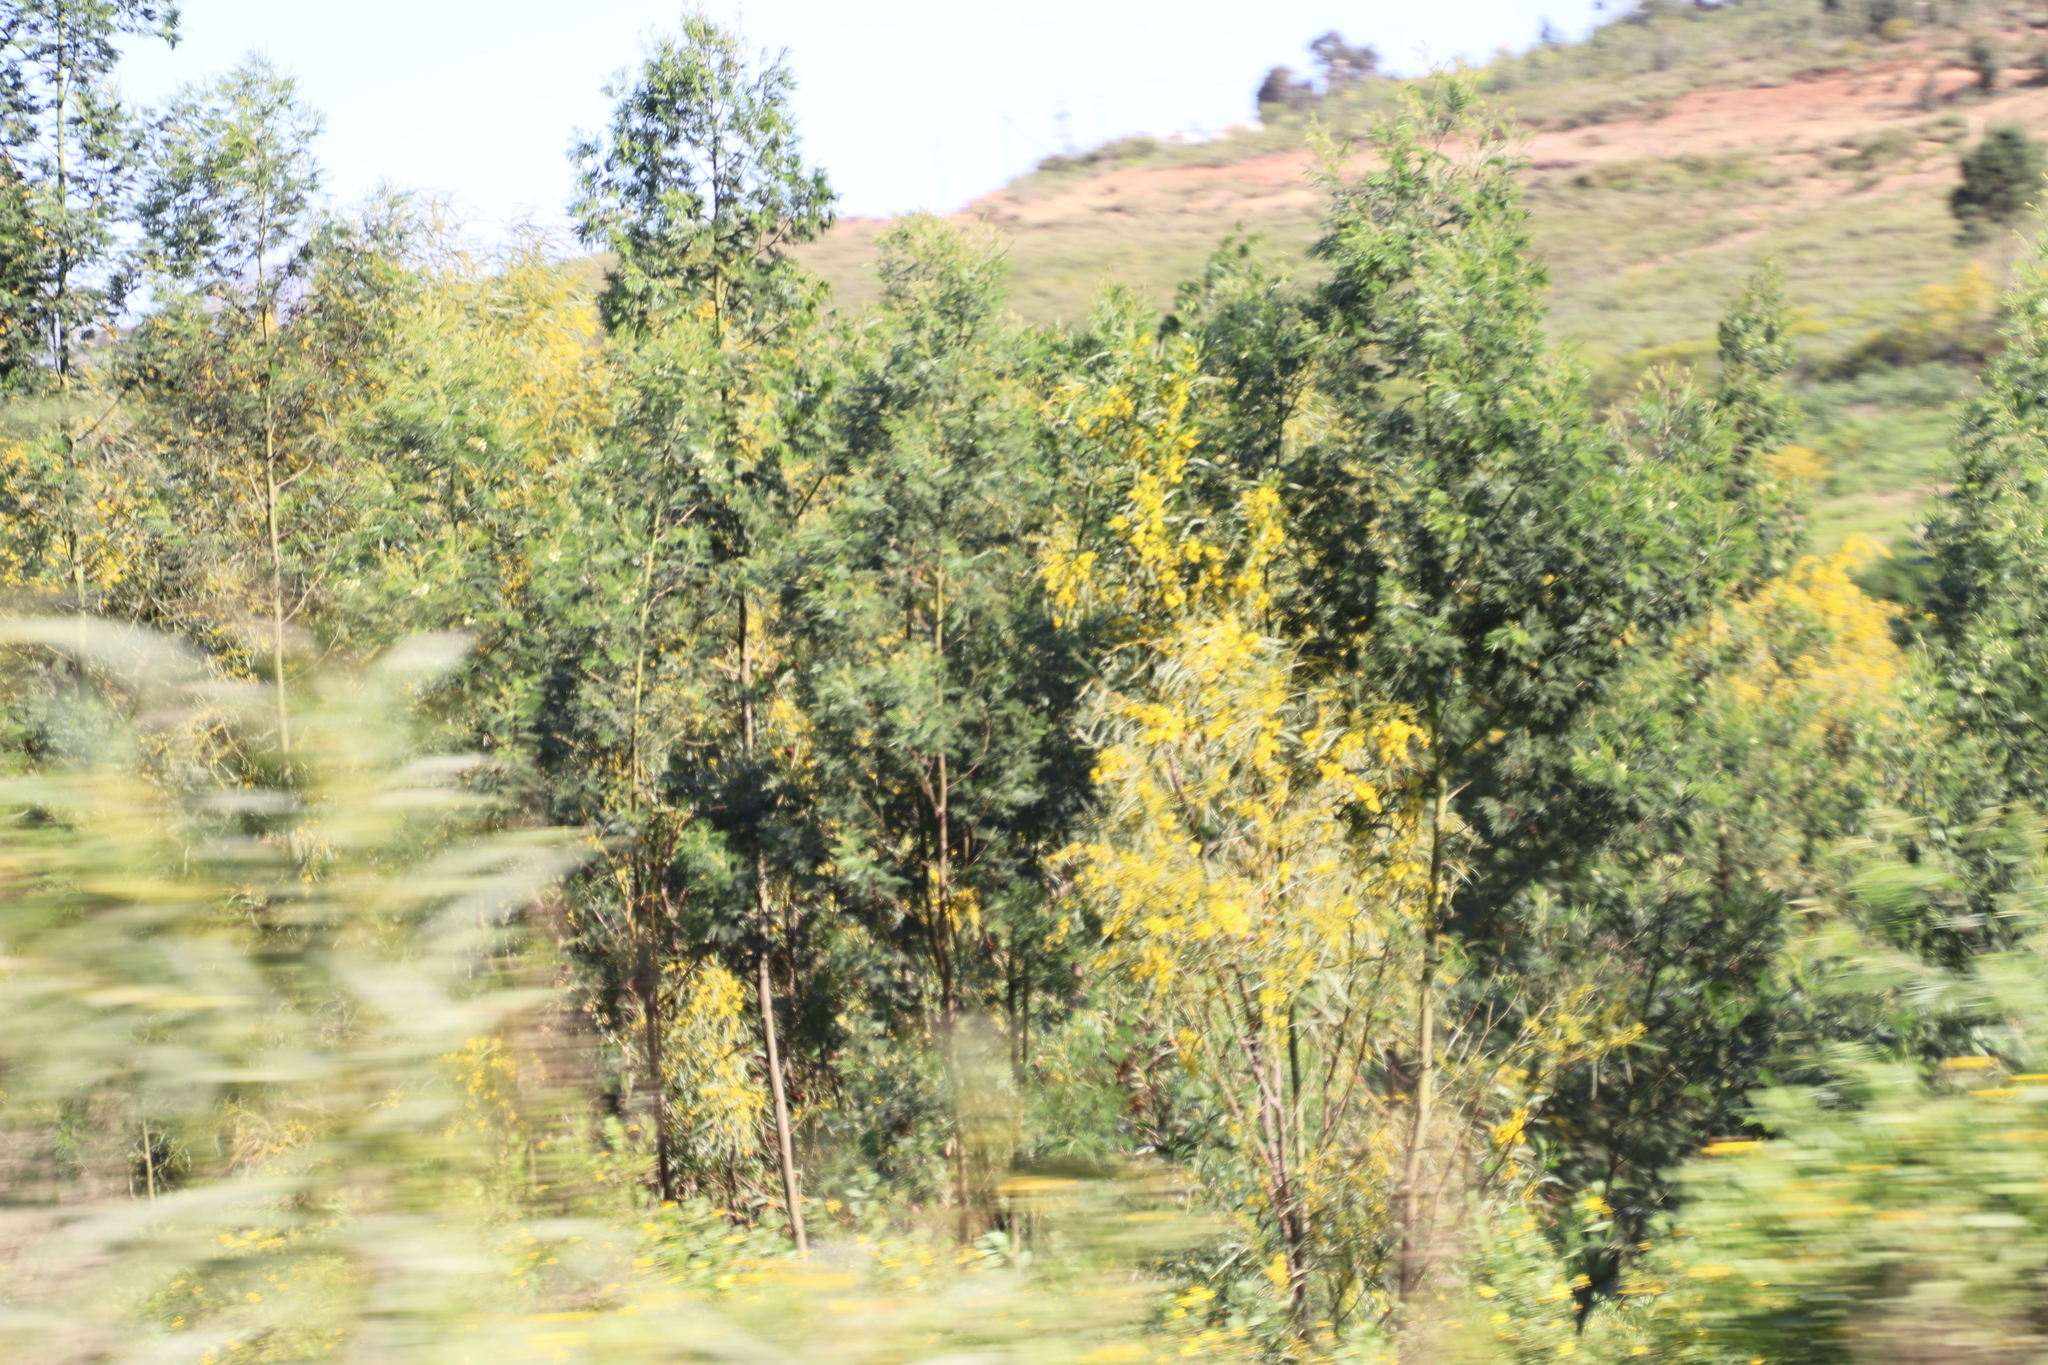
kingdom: Plantae
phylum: Tracheophyta
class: Magnoliopsida
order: Fabales
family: Fabaceae
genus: Acacia
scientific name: Acacia saligna
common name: Orange wattle
